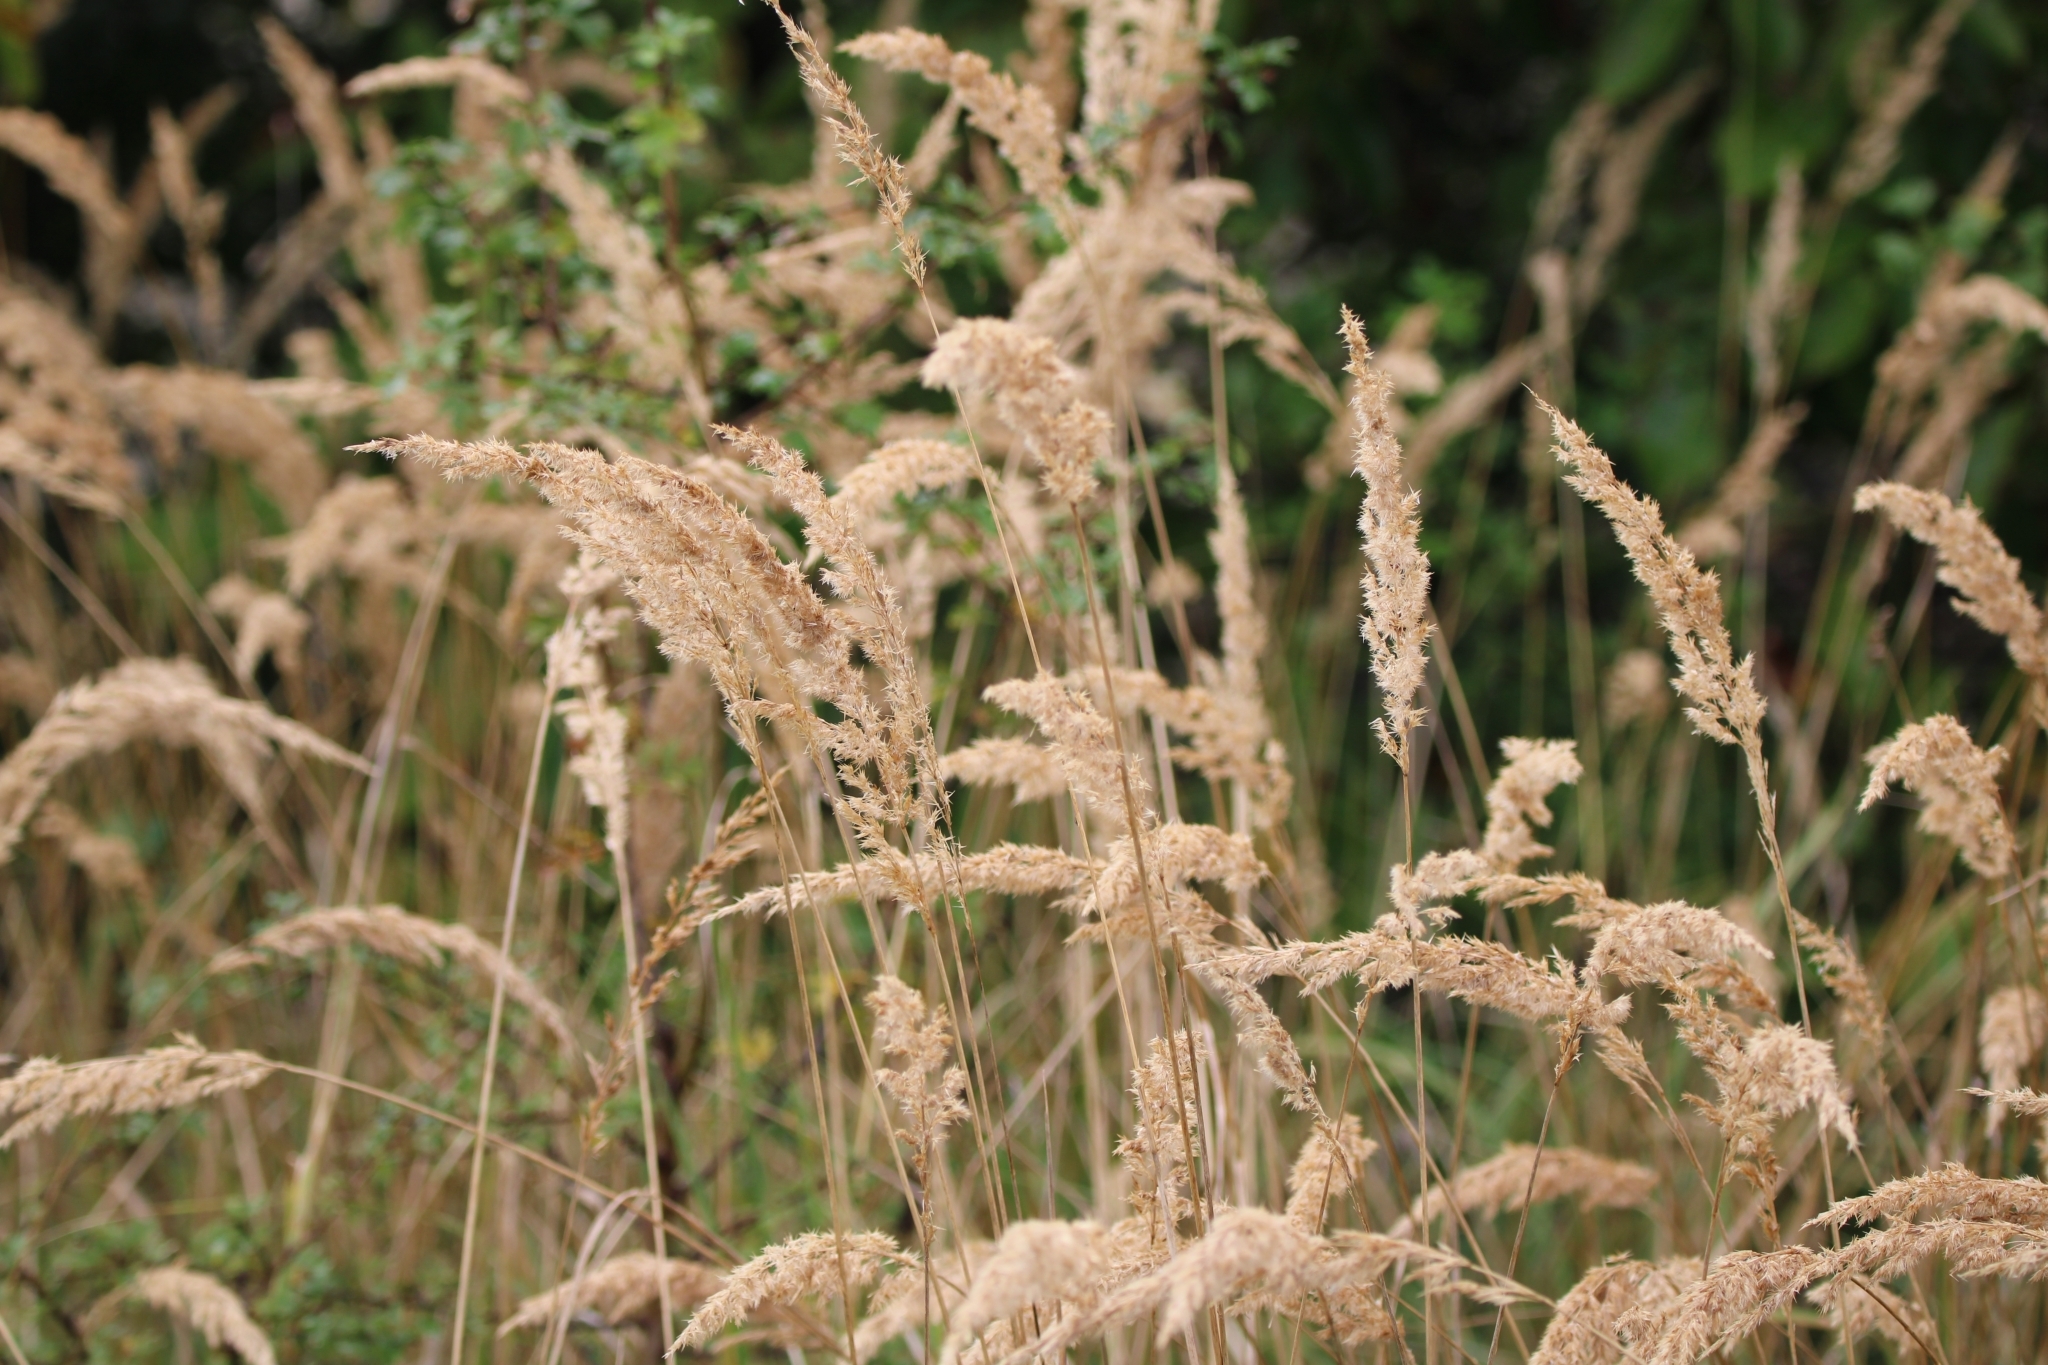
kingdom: Plantae
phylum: Tracheophyta
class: Liliopsida
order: Poales
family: Poaceae
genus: Calamagrostis
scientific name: Calamagrostis epigejos
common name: Wood small-reed
